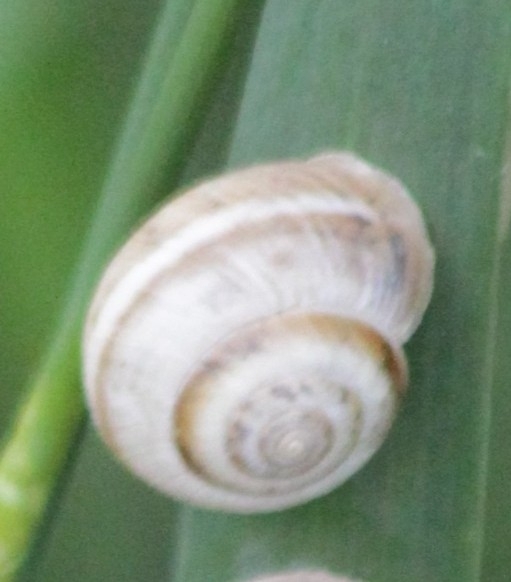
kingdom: Animalia
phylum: Mollusca
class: Gastropoda
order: Stylommatophora
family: Hygromiidae
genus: Harmozica
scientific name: Harmozica ravergiensis
